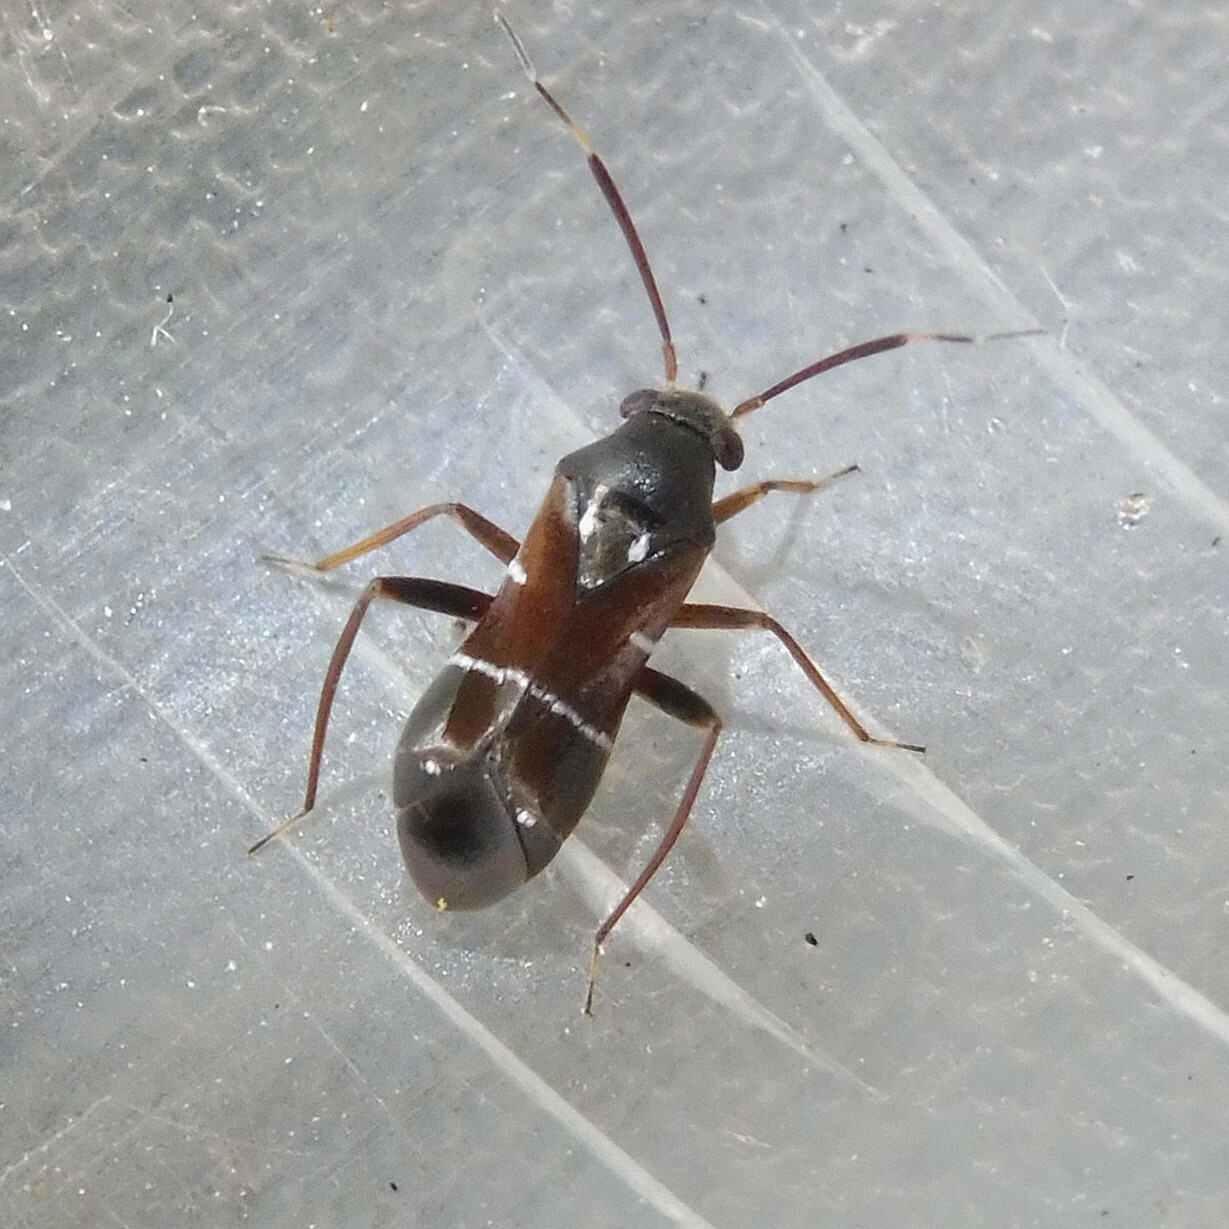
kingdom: Animalia
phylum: Arthropoda
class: Insecta
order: Hemiptera
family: Miridae
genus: Pilophorus
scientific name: Pilophorus perplexus
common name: Plant bug
